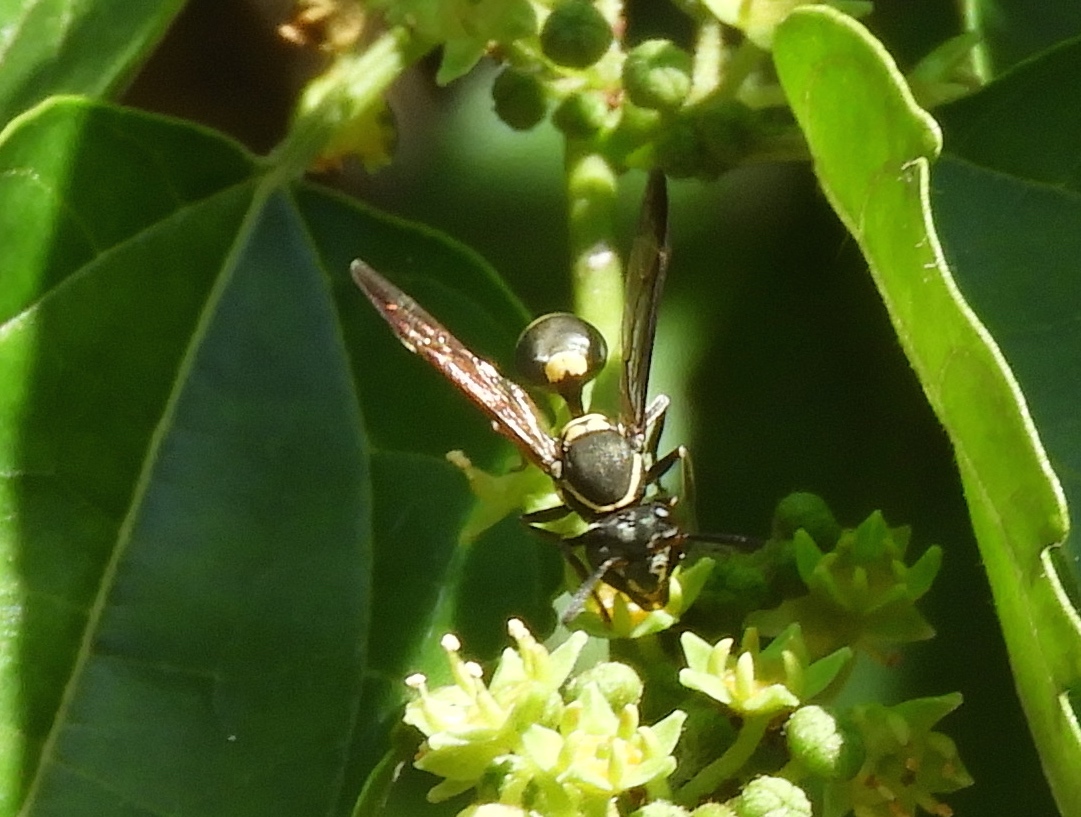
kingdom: Animalia
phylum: Arthropoda
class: Insecta
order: Hymenoptera
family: Vespidae
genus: Myrapetra
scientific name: Myrapetra
